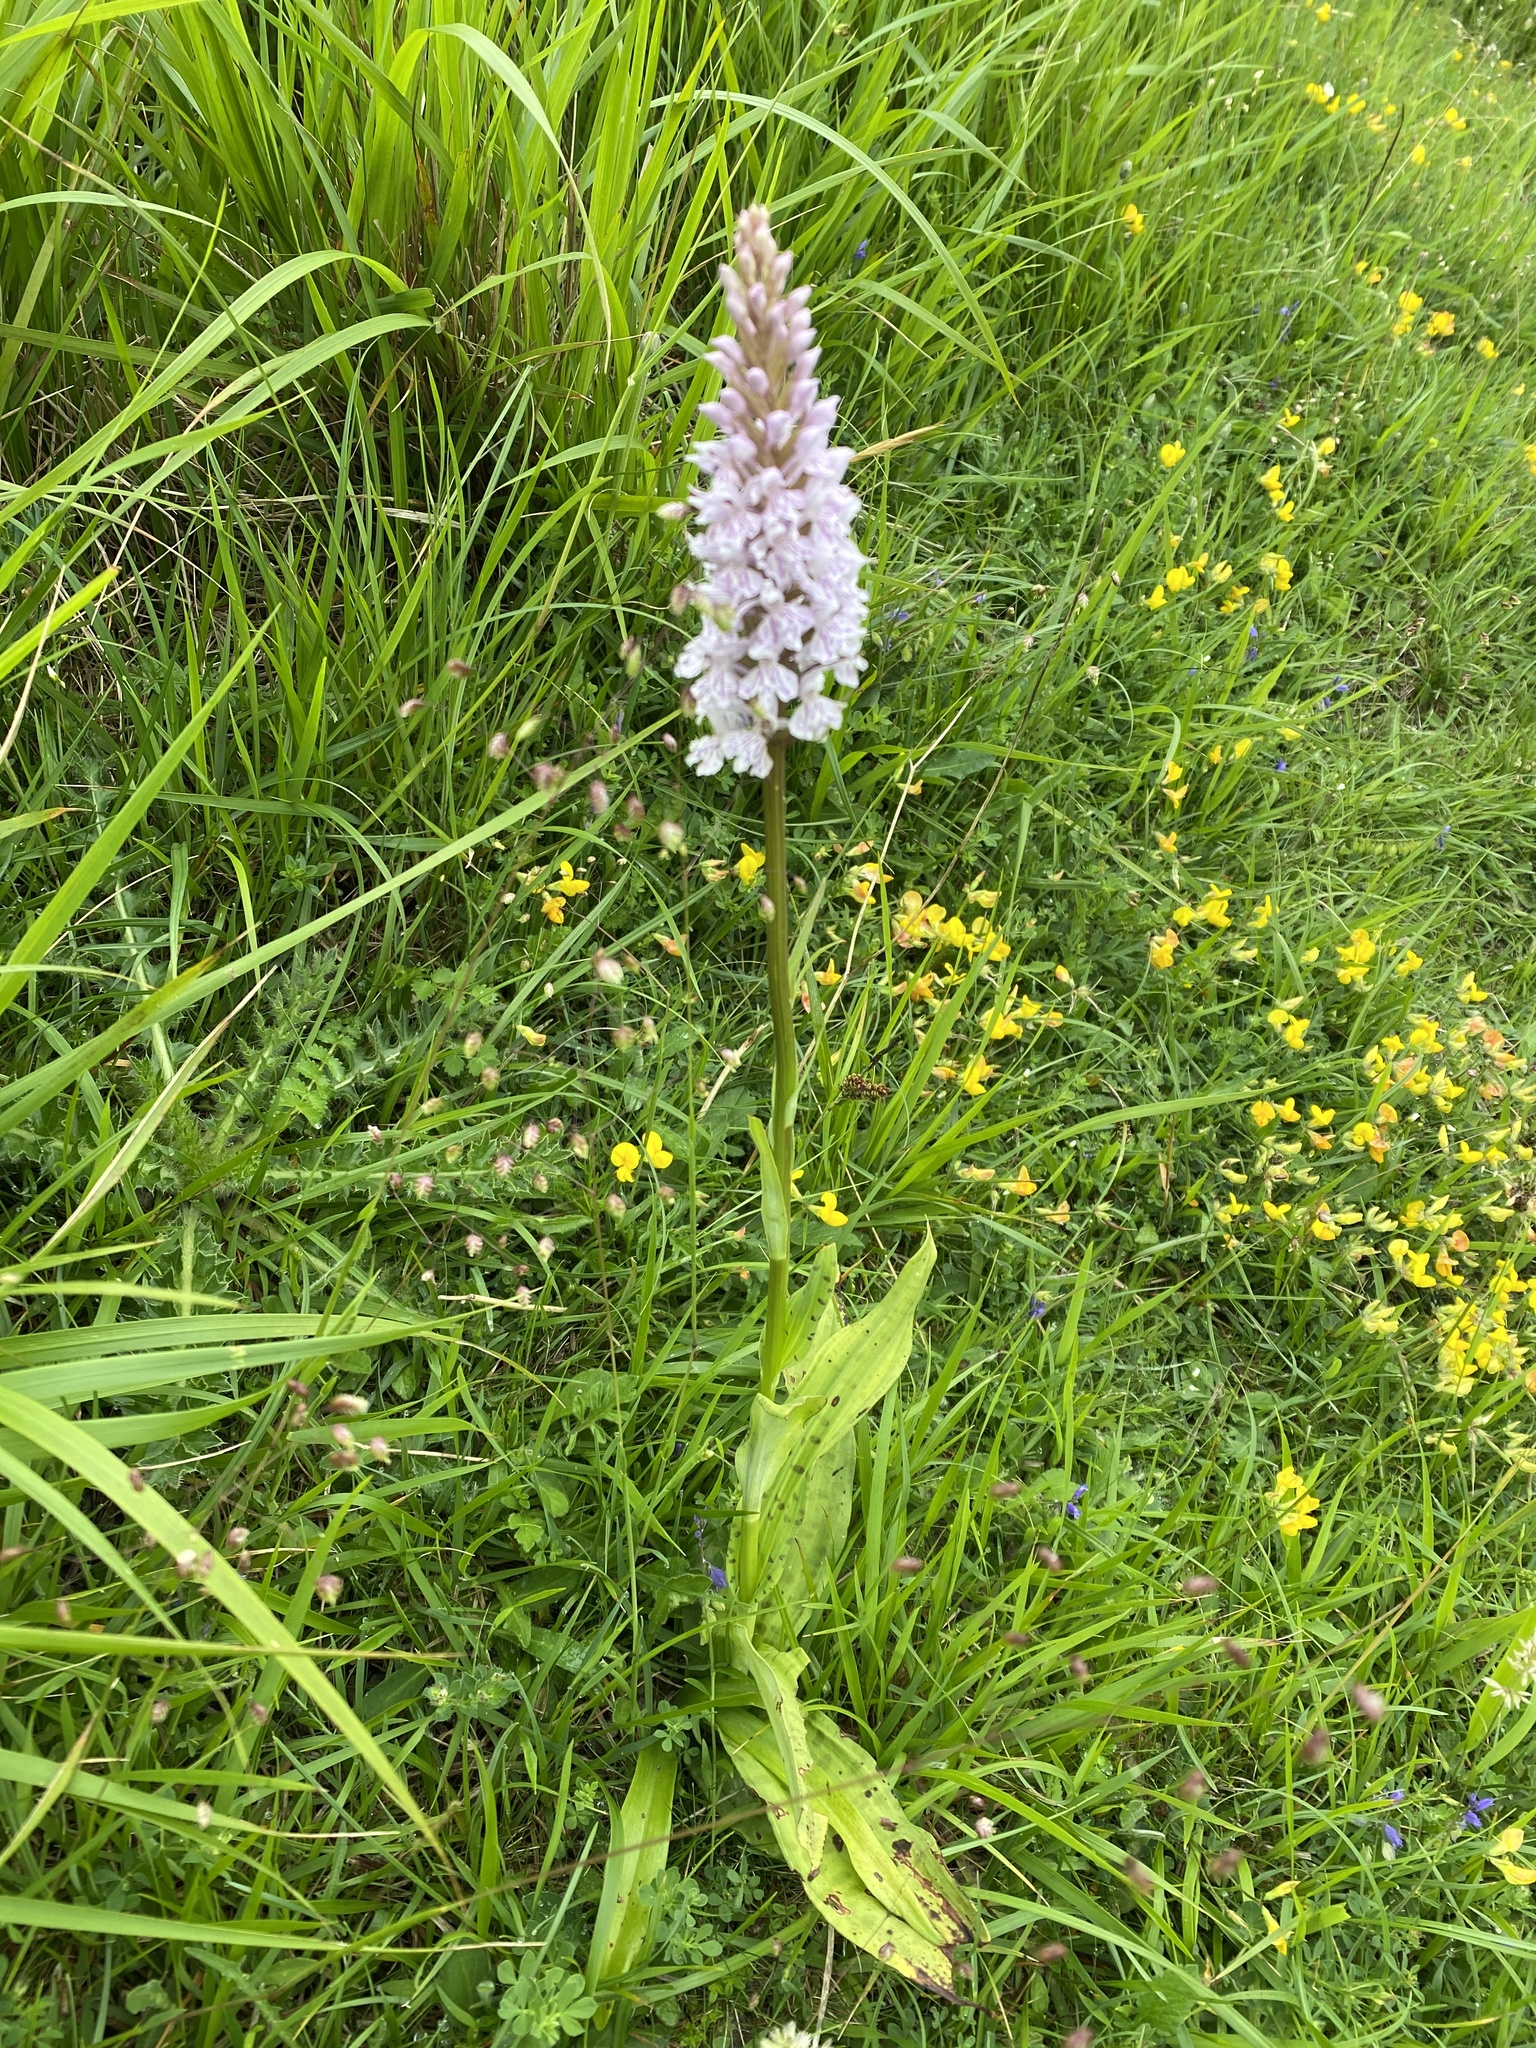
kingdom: Plantae
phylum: Tracheophyta
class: Liliopsida
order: Asparagales
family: Orchidaceae
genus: Dactylorhiza
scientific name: Dactylorhiza maculata
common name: Heath spotted-orchid
